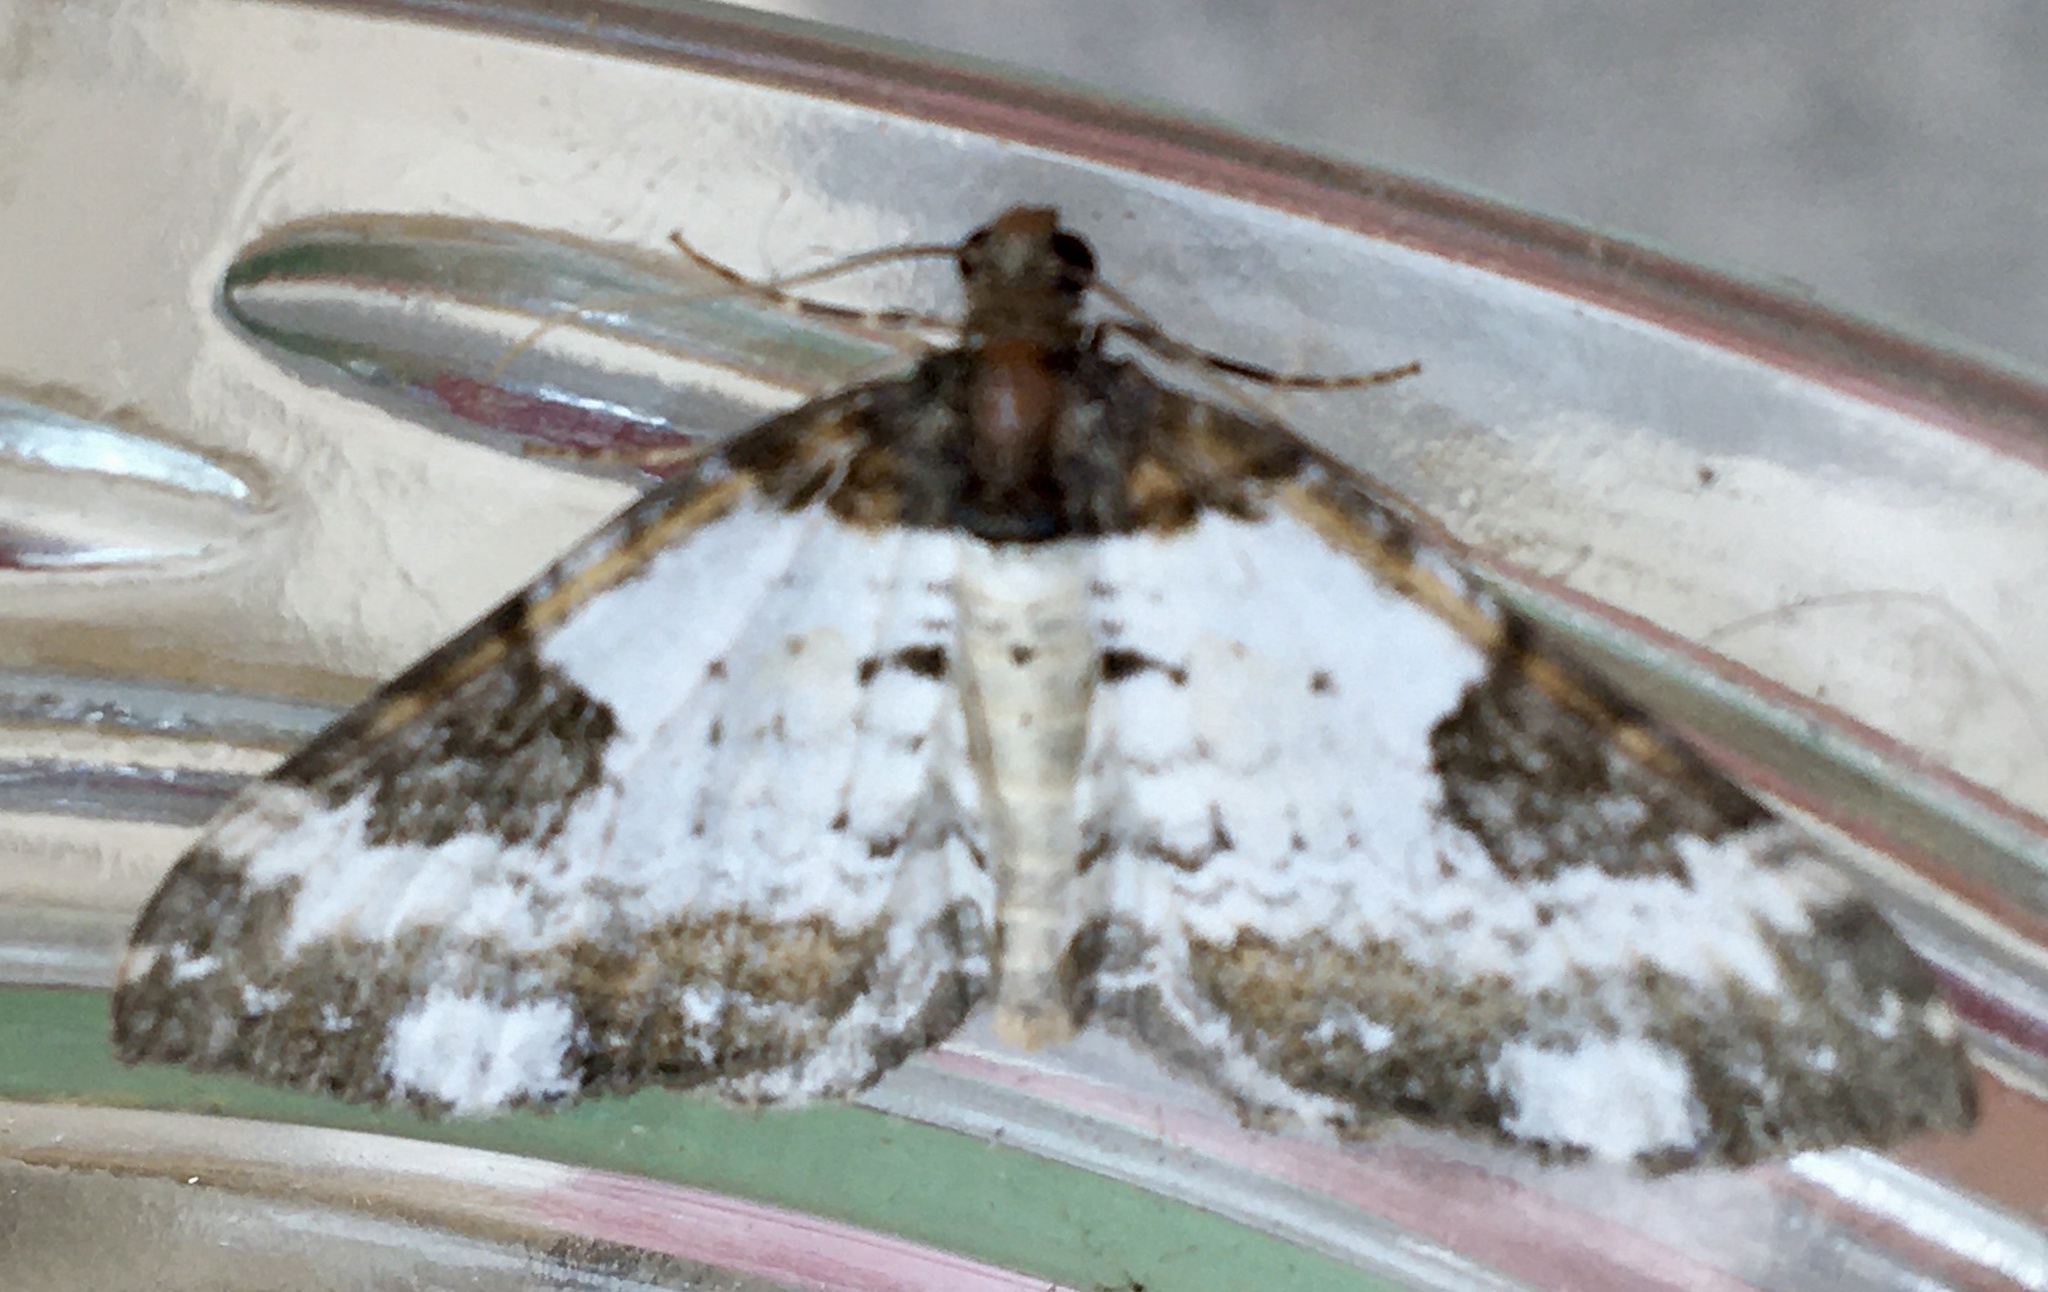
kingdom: Animalia
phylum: Arthropoda
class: Insecta
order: Lepidoptera
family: Geometridae
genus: Melanthia
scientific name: Melanthia procellata
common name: Pretty chalk carpet
